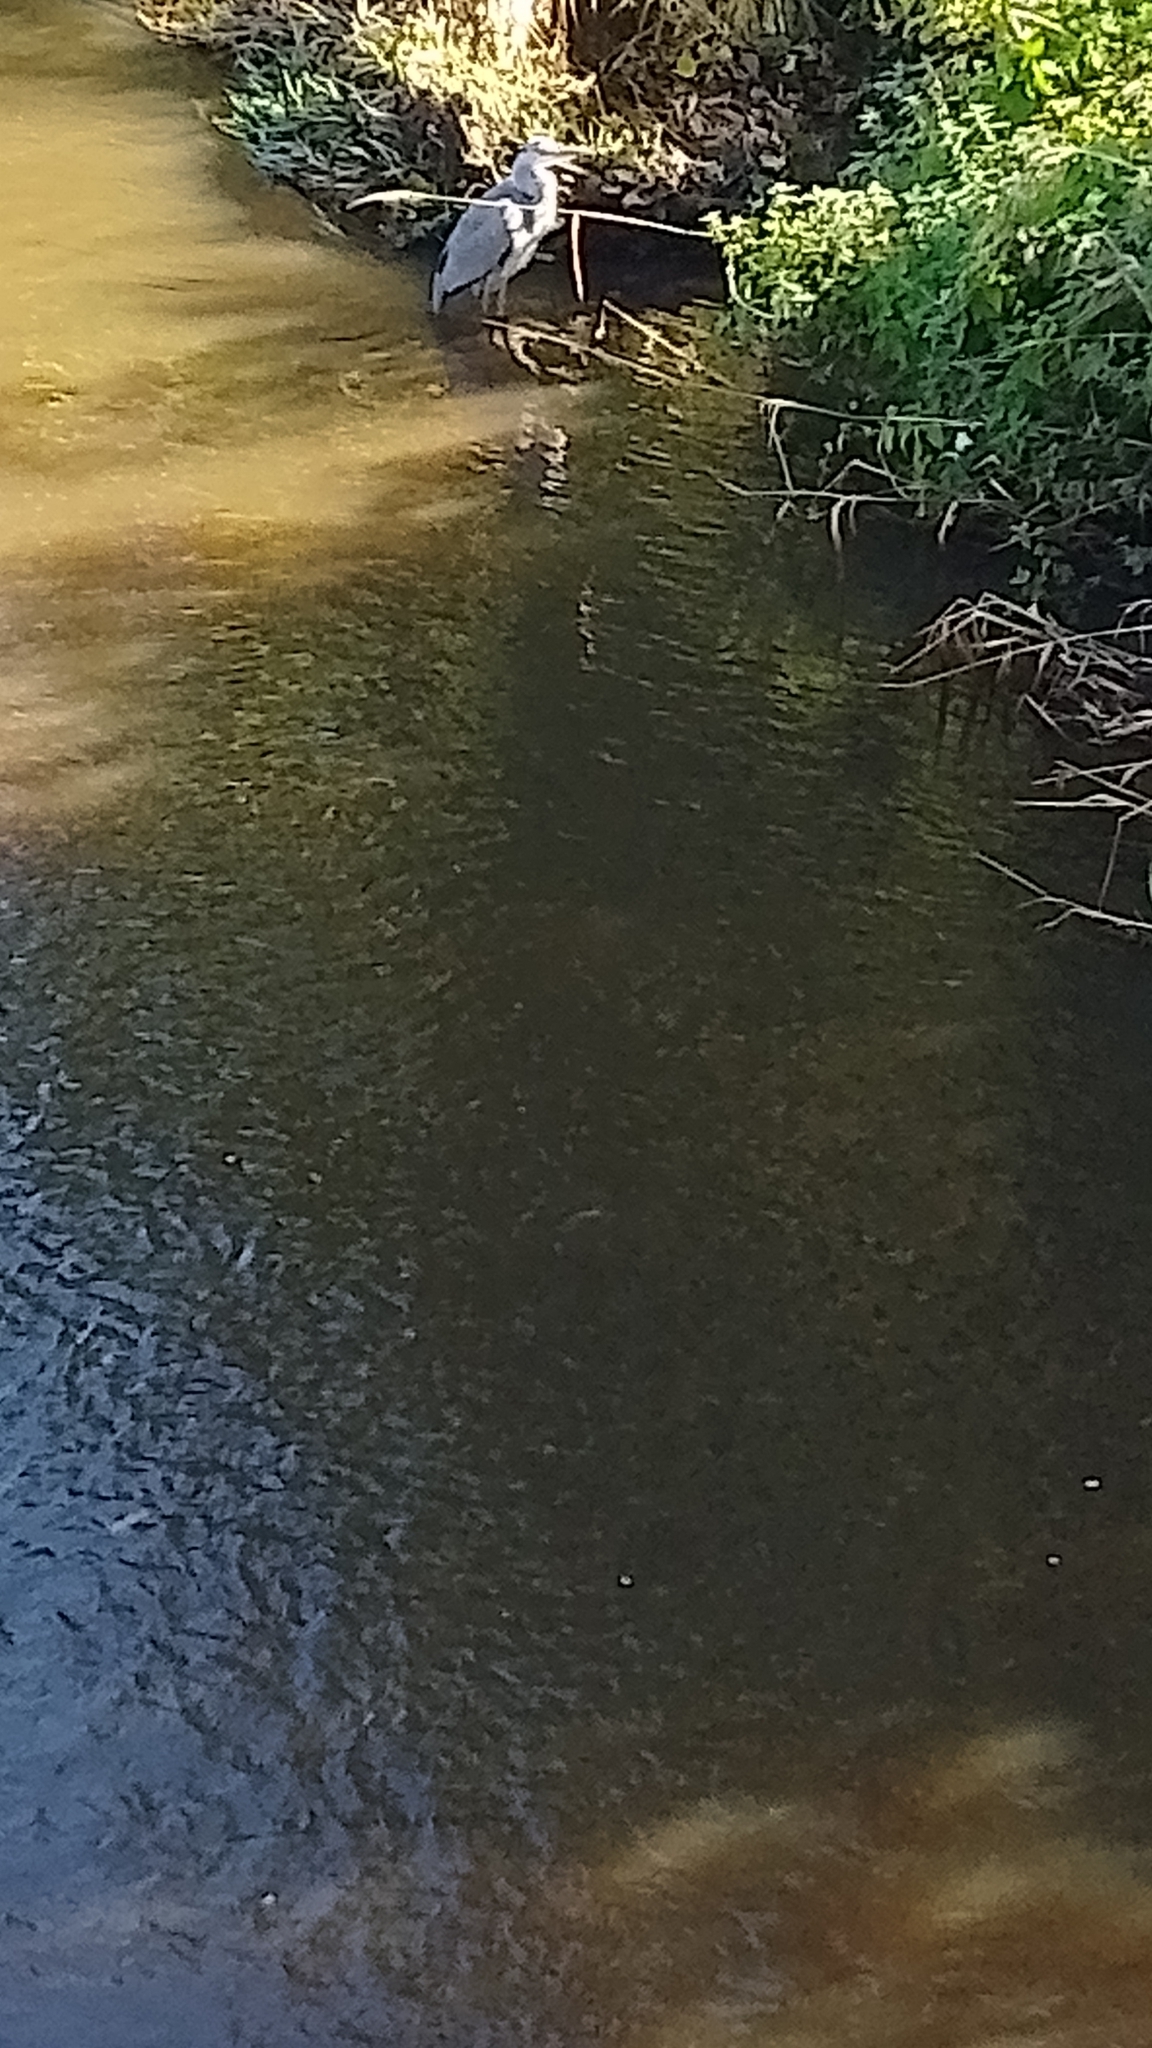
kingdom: Animalia
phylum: Chordata
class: Aves
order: Pelecaniformes
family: Ardeidae
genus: Ardea
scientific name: Ardea cinerea
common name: Grey heron
